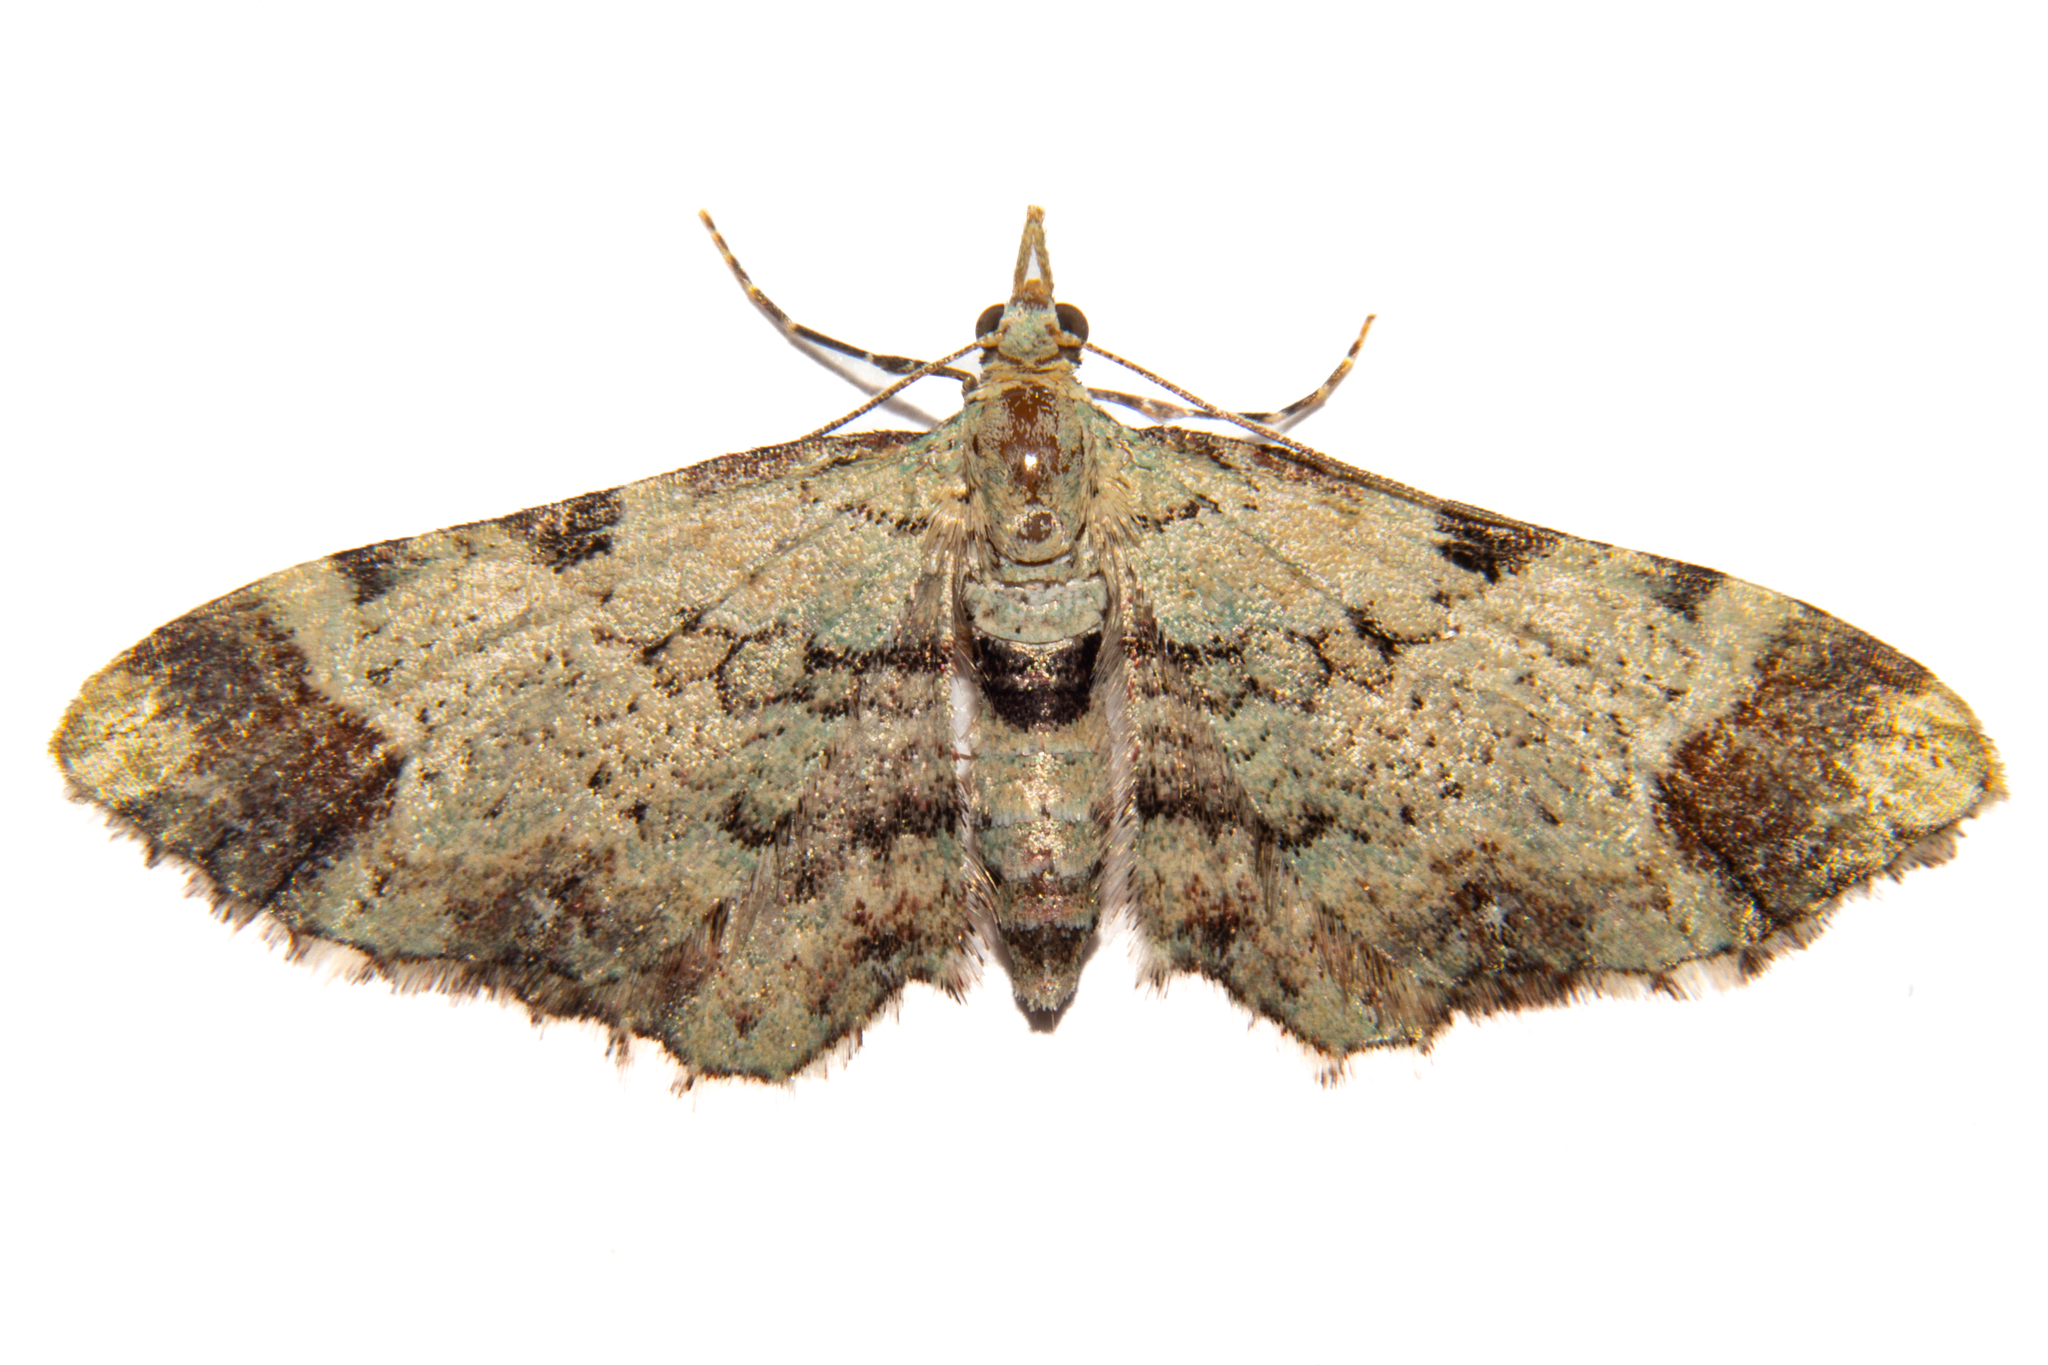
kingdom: Animalia
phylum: Arthropoda
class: Insecta
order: Lepidoptera
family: Geometridae
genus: Pasiphila
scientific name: Pasiphila magnimaculata
